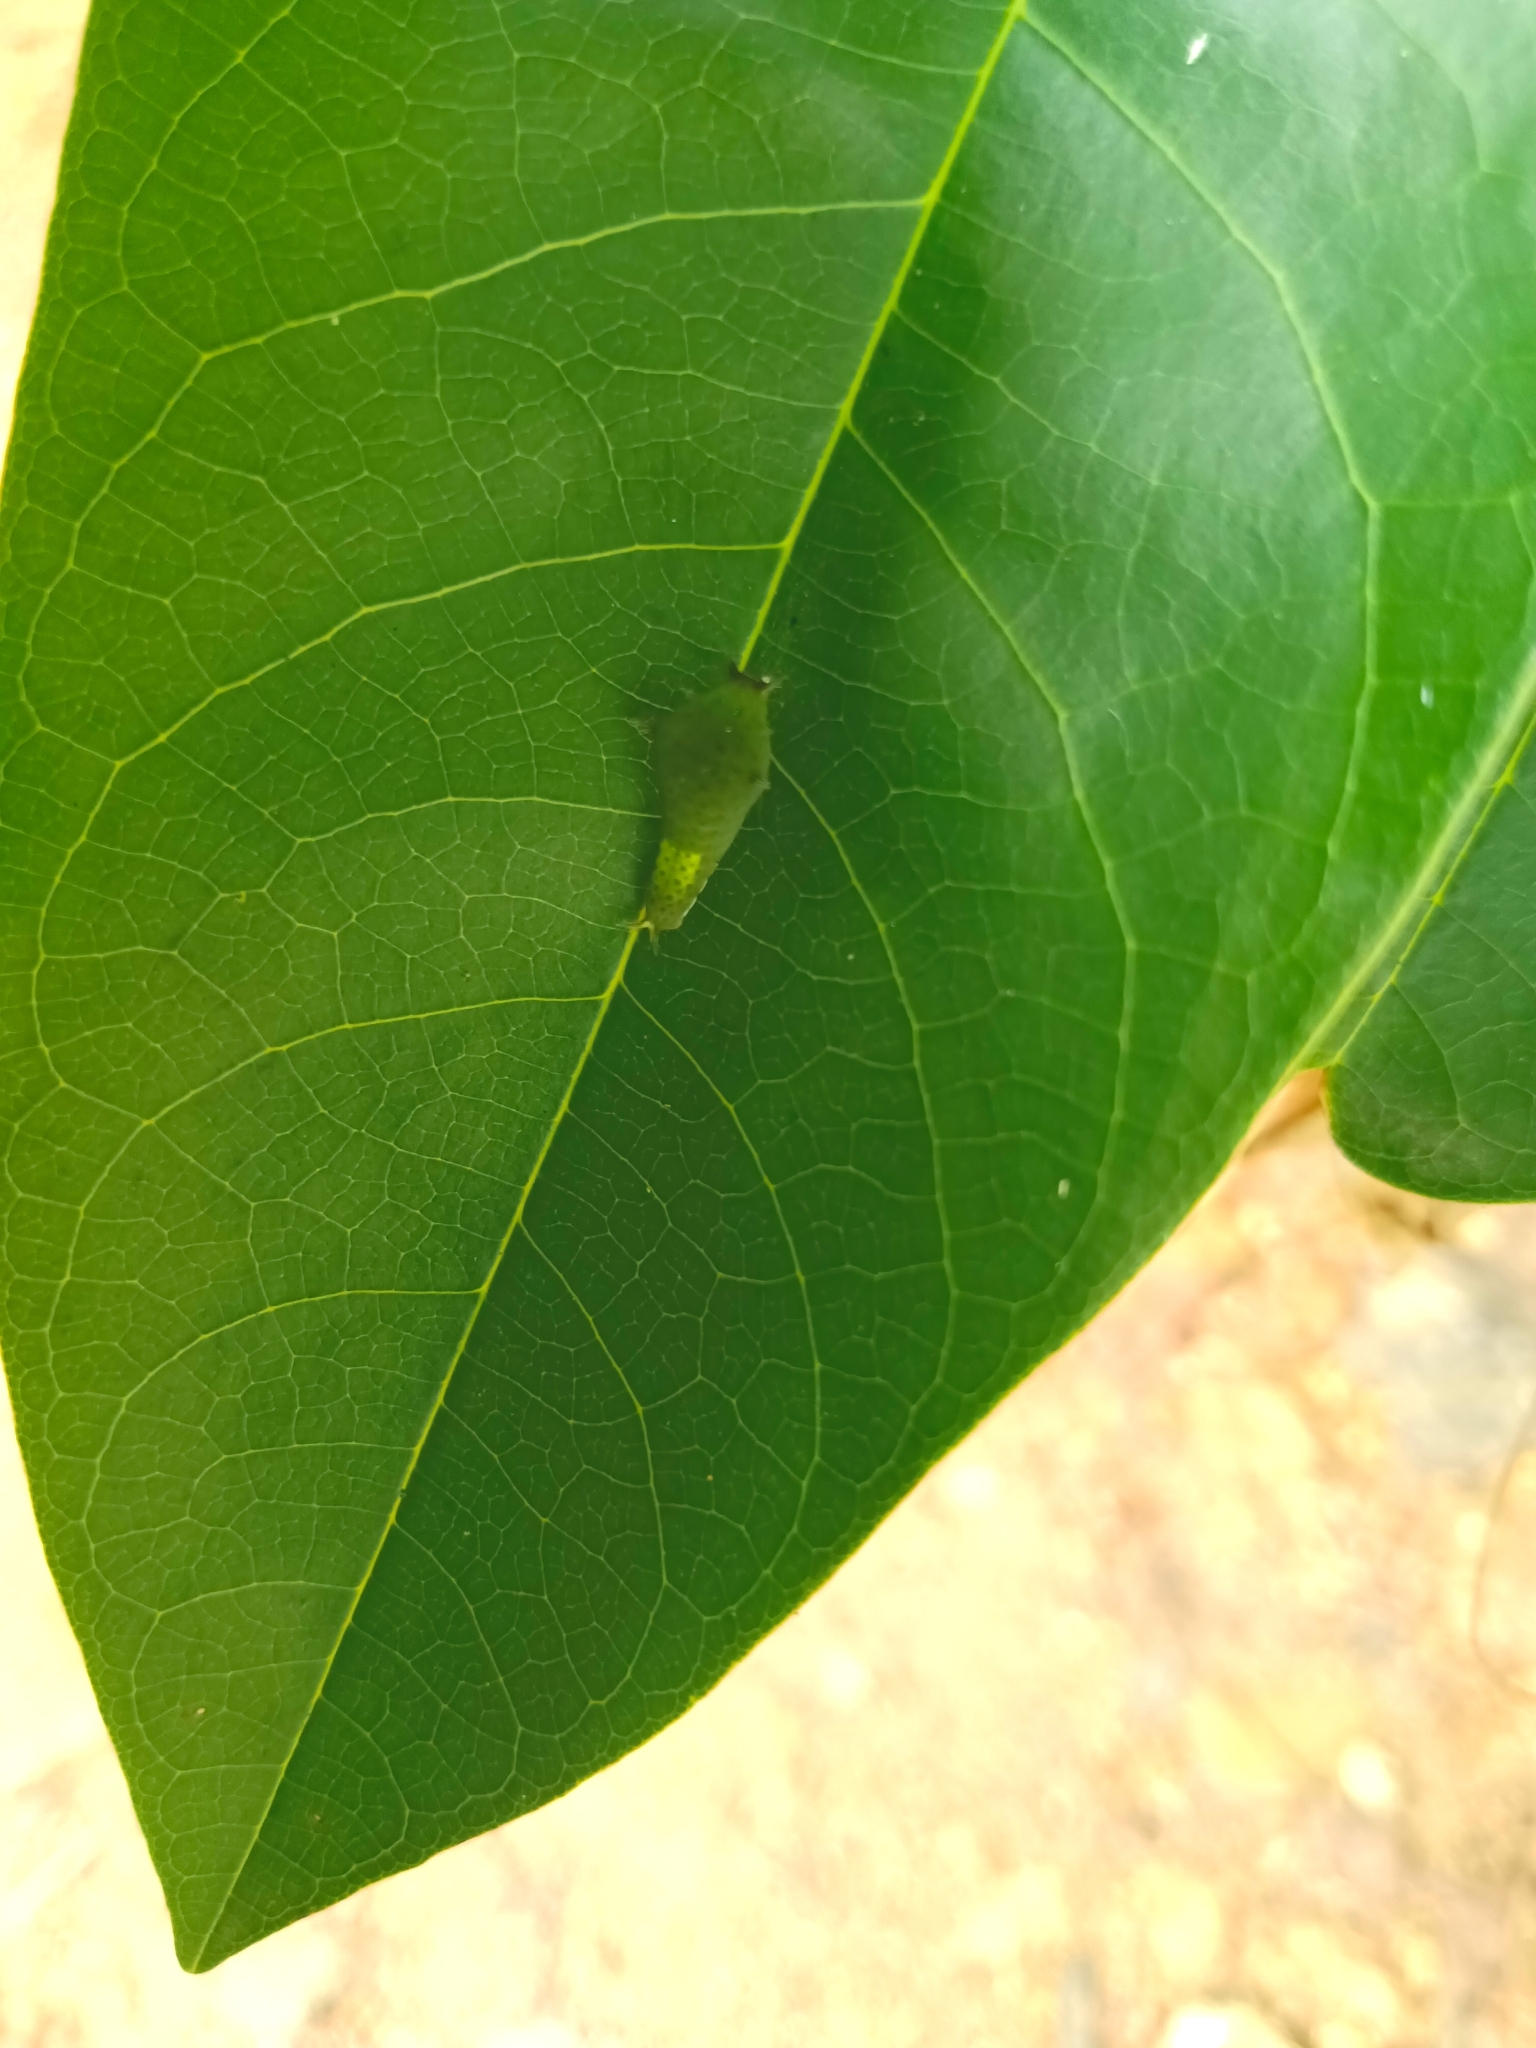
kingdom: Animalia
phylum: Arthropoda
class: Insecta
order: Lepidoptera
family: Papilionidae
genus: Graphium
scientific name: Graphium agamemnon
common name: Tailed jay
